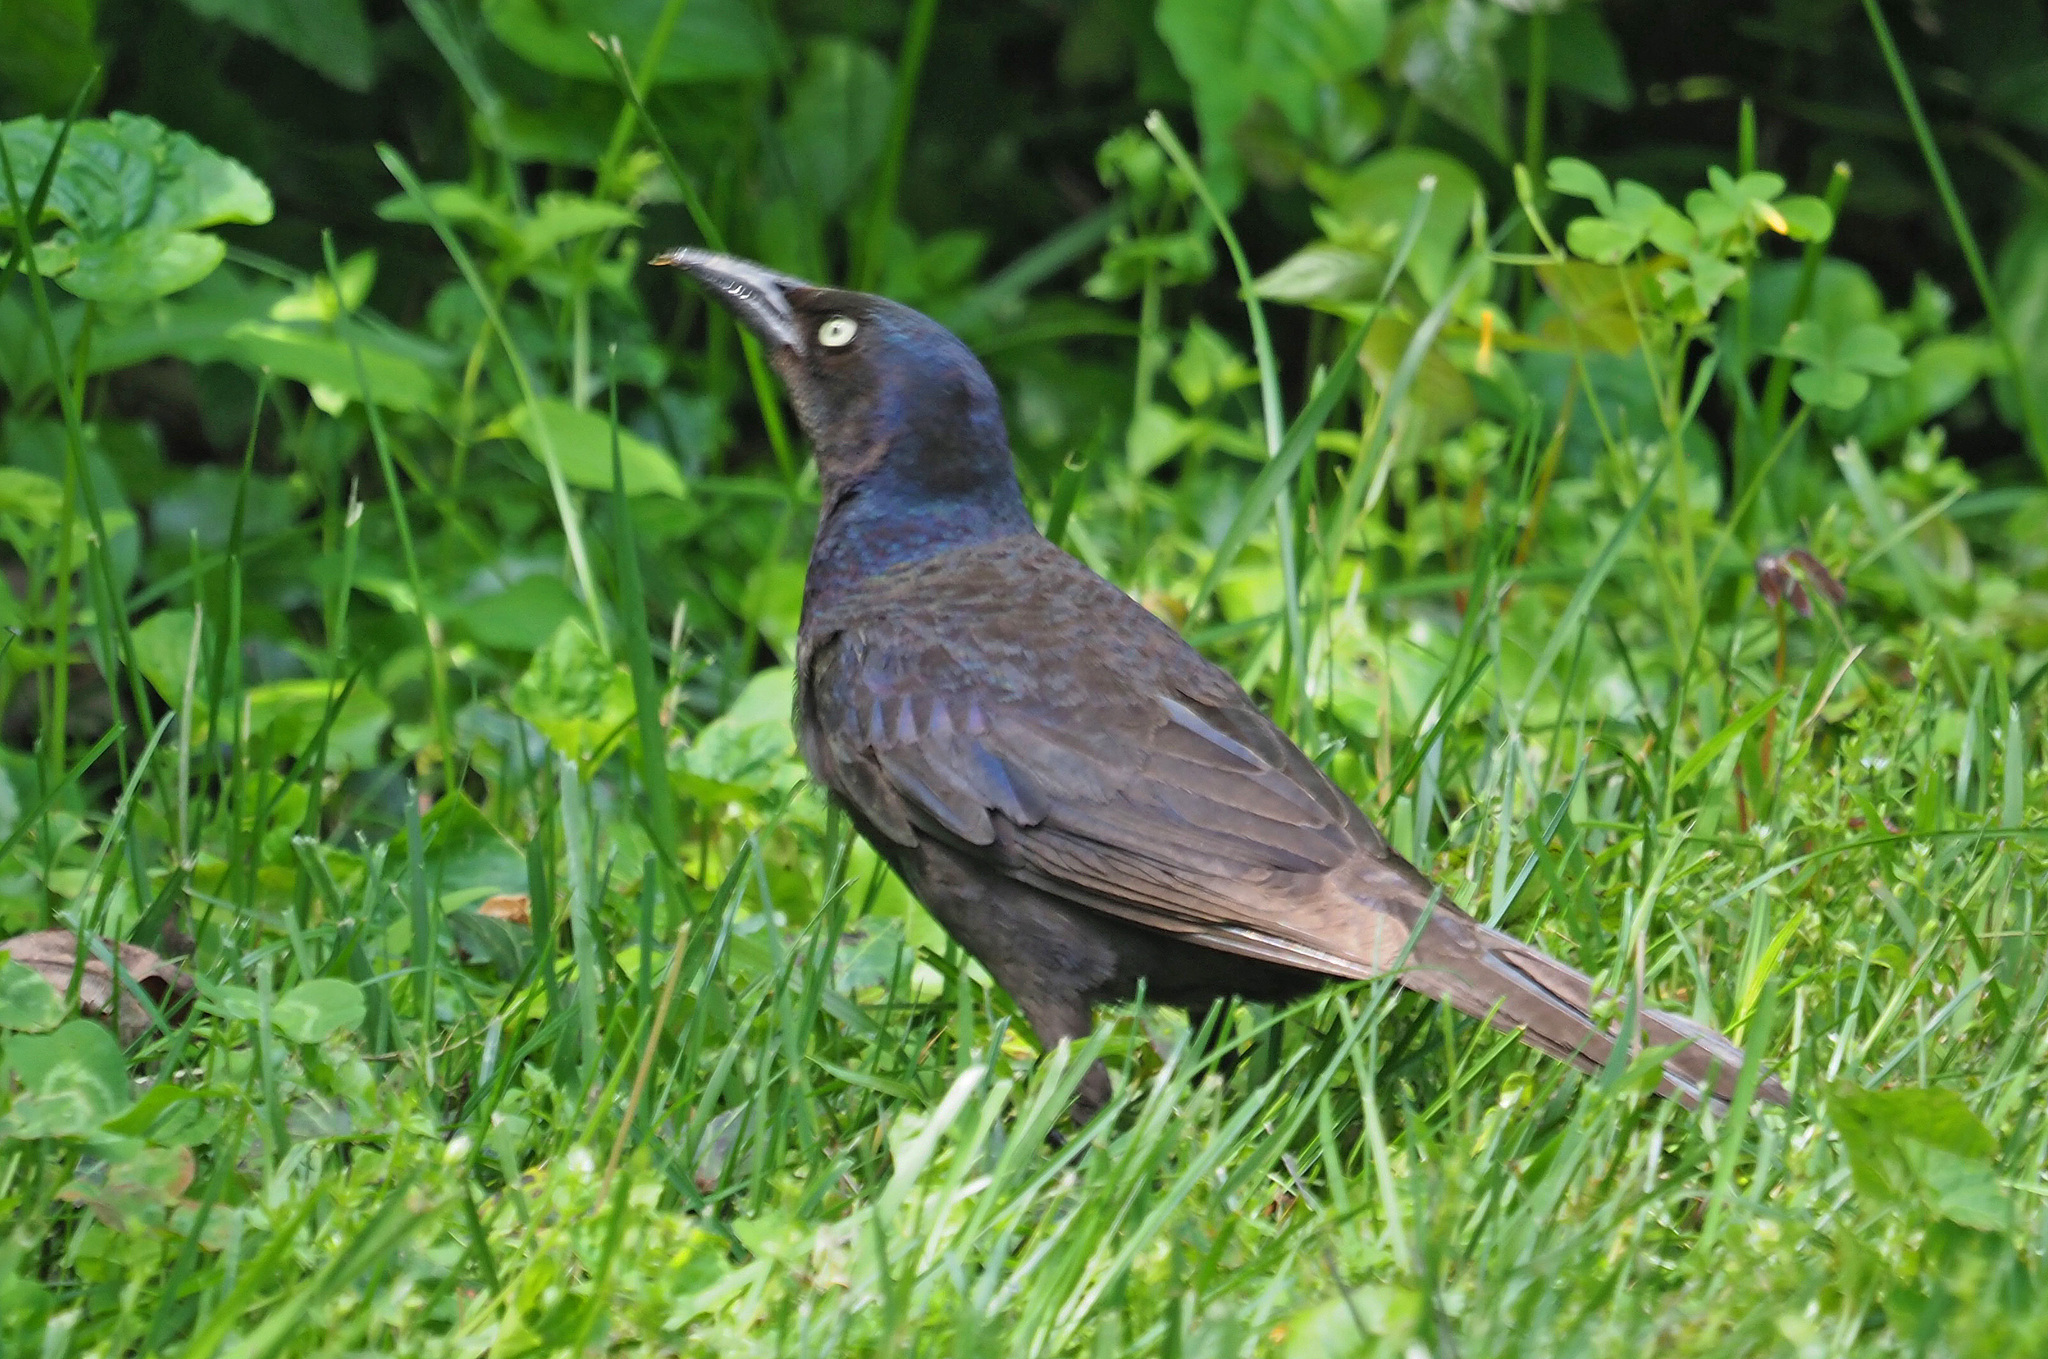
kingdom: Animalia
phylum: Chordata
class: Aves
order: Passeriformes
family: Icteridae
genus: Quiscalus
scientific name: Quiscalus quiscula
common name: Common grackle
